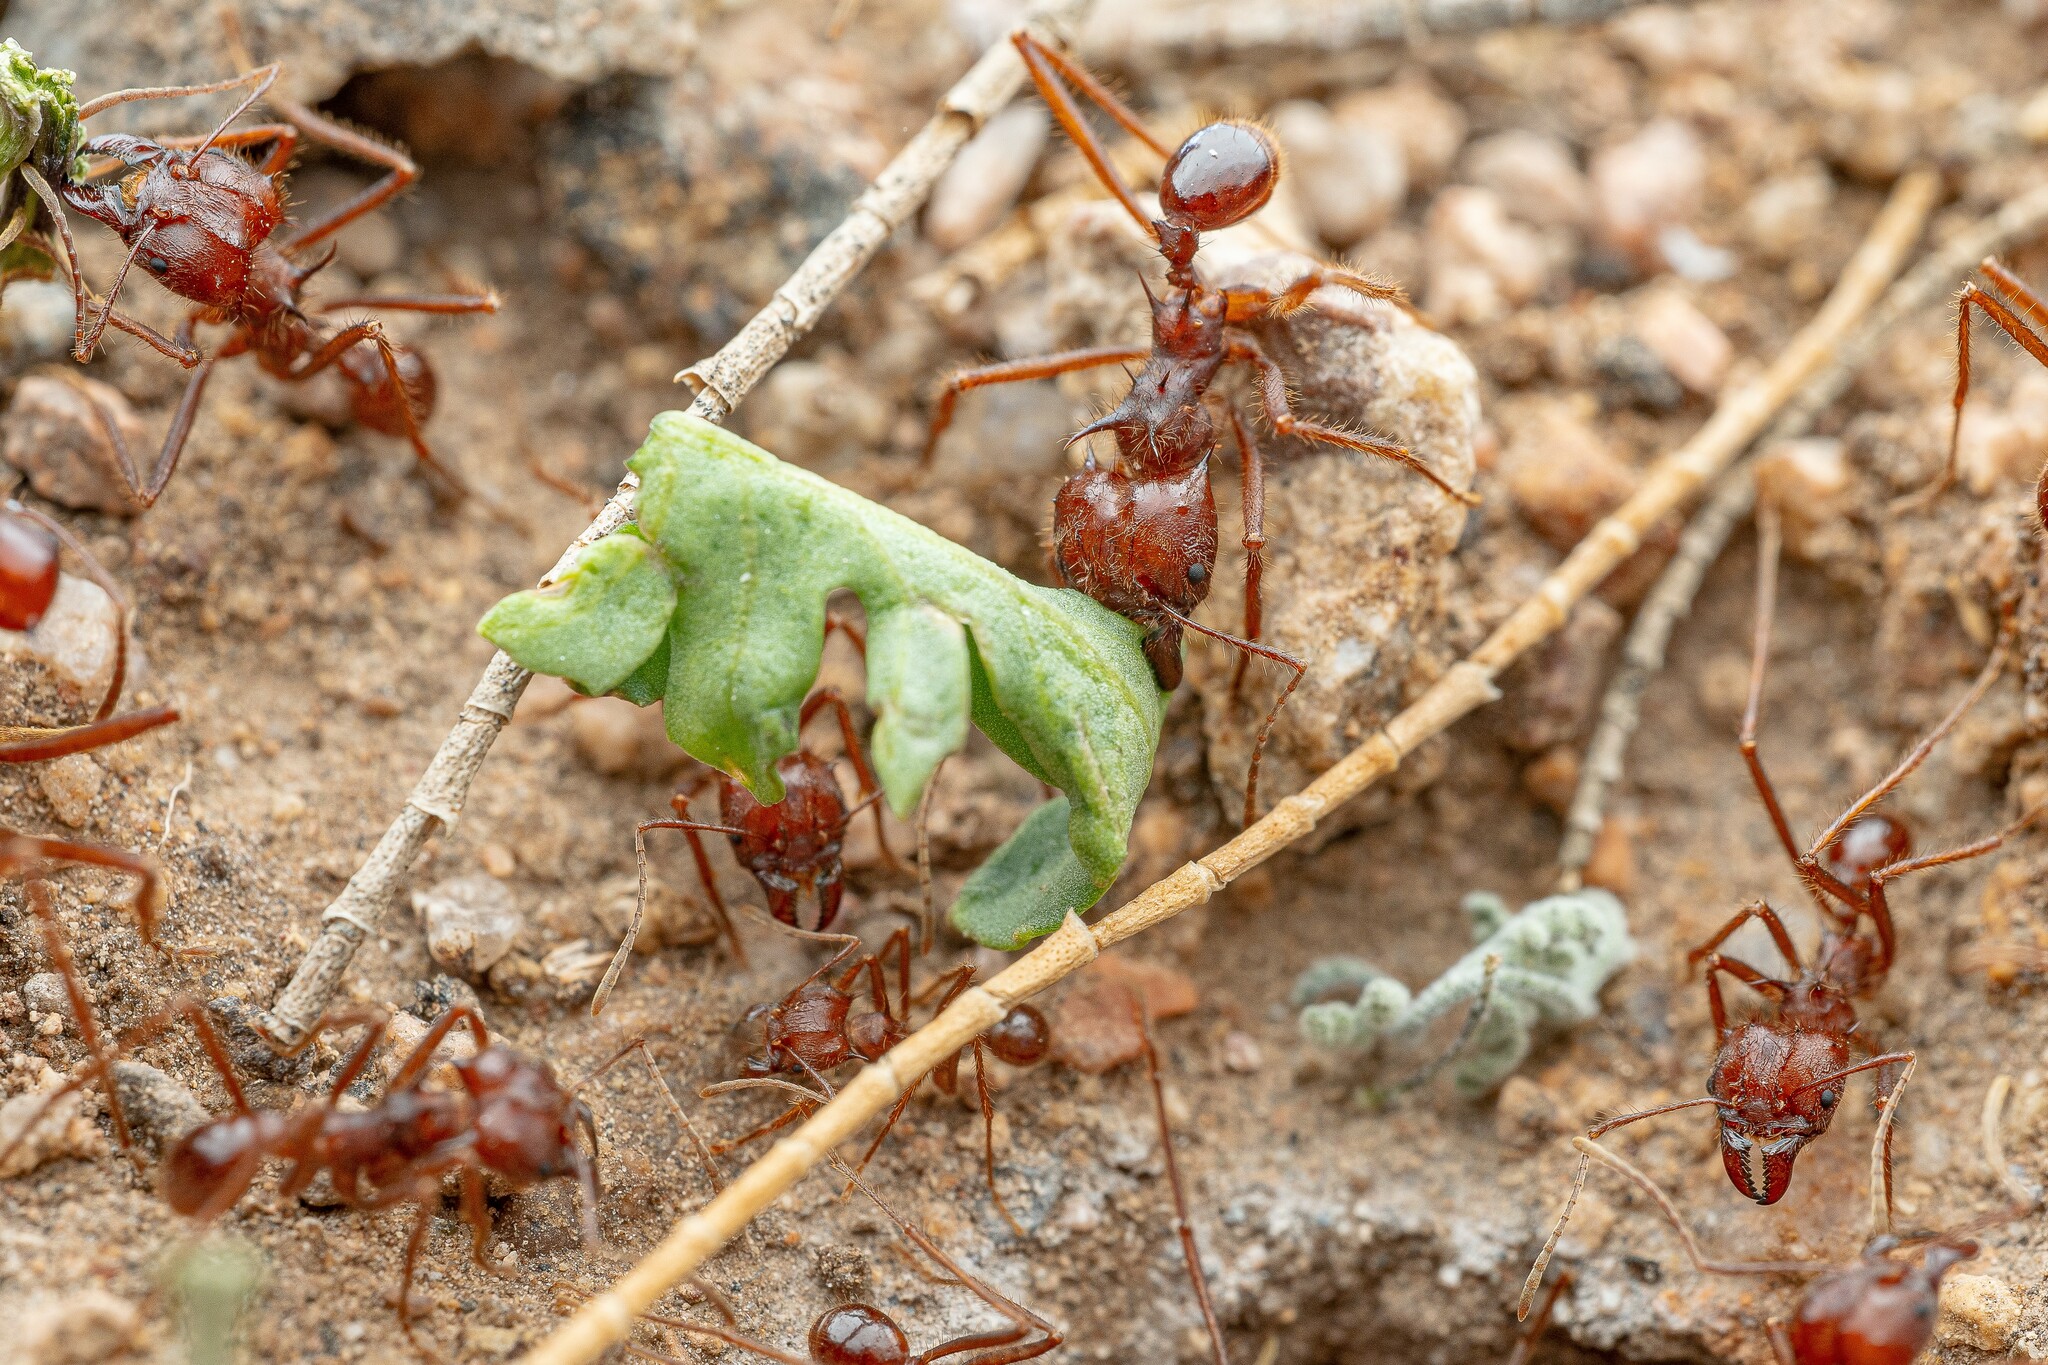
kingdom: Animalia
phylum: Arthropoda
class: Insecta
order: Hymenoptera
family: Formicidae
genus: Atta
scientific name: Atta mexicana
